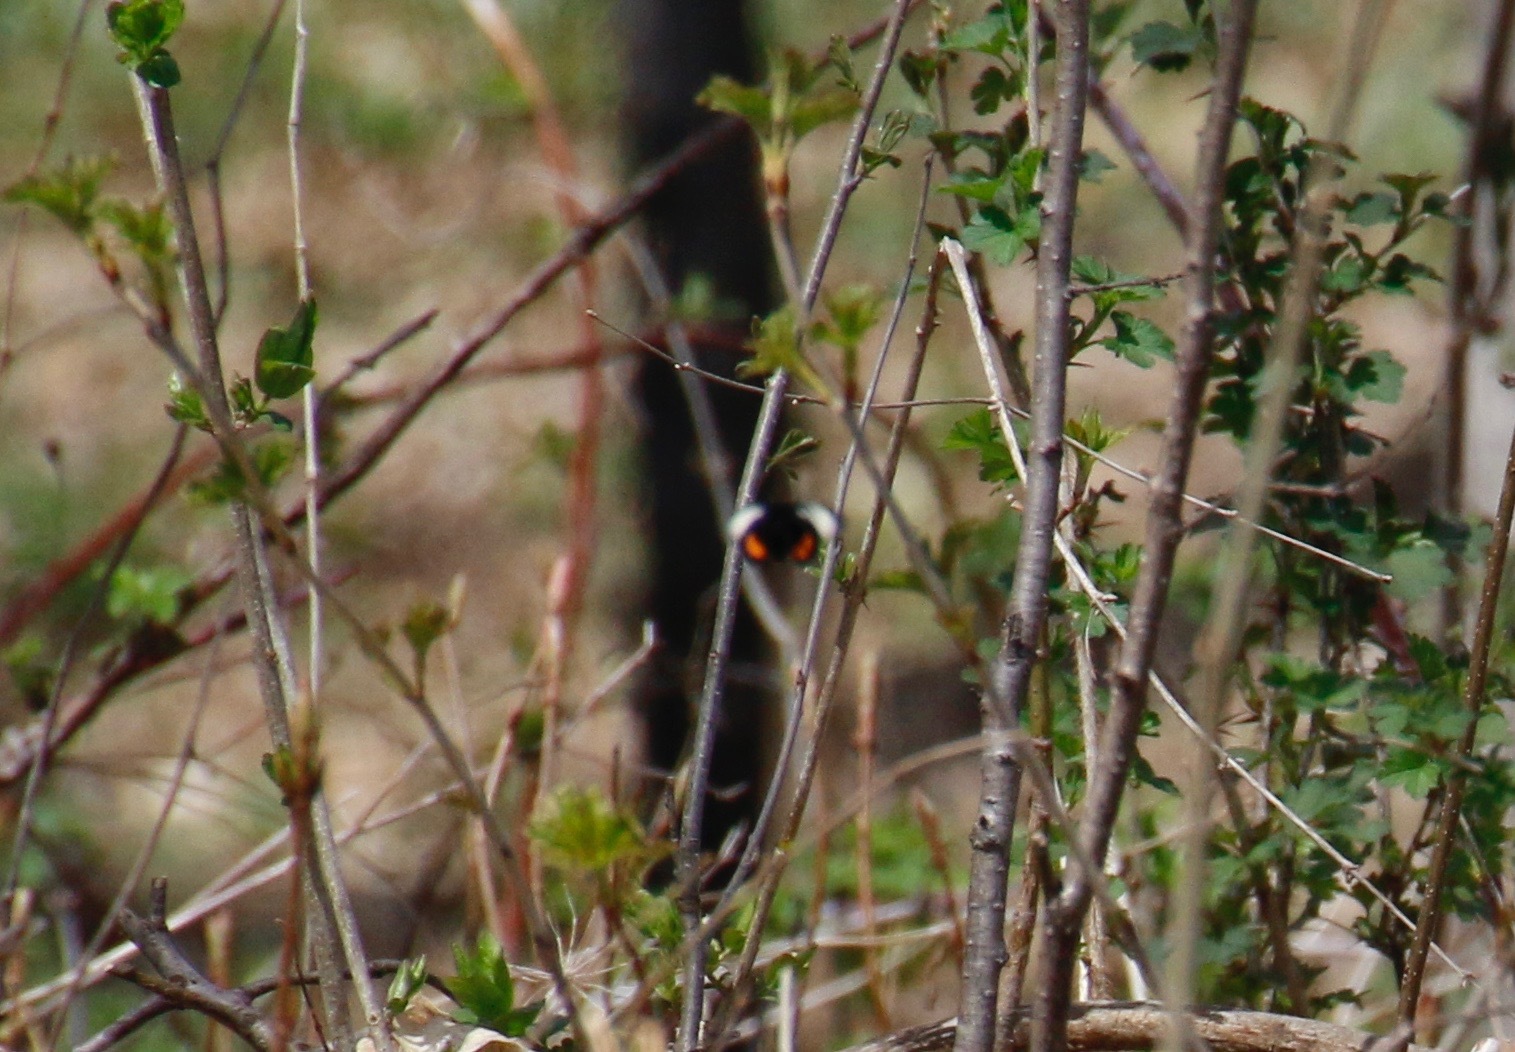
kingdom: Animalia
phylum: Arthropoda
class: Insecta
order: Lepidoptera
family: Noctuidae
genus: Psychomorpha
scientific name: Psychomorpha epimenis
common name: Grapevine epimenis moth
